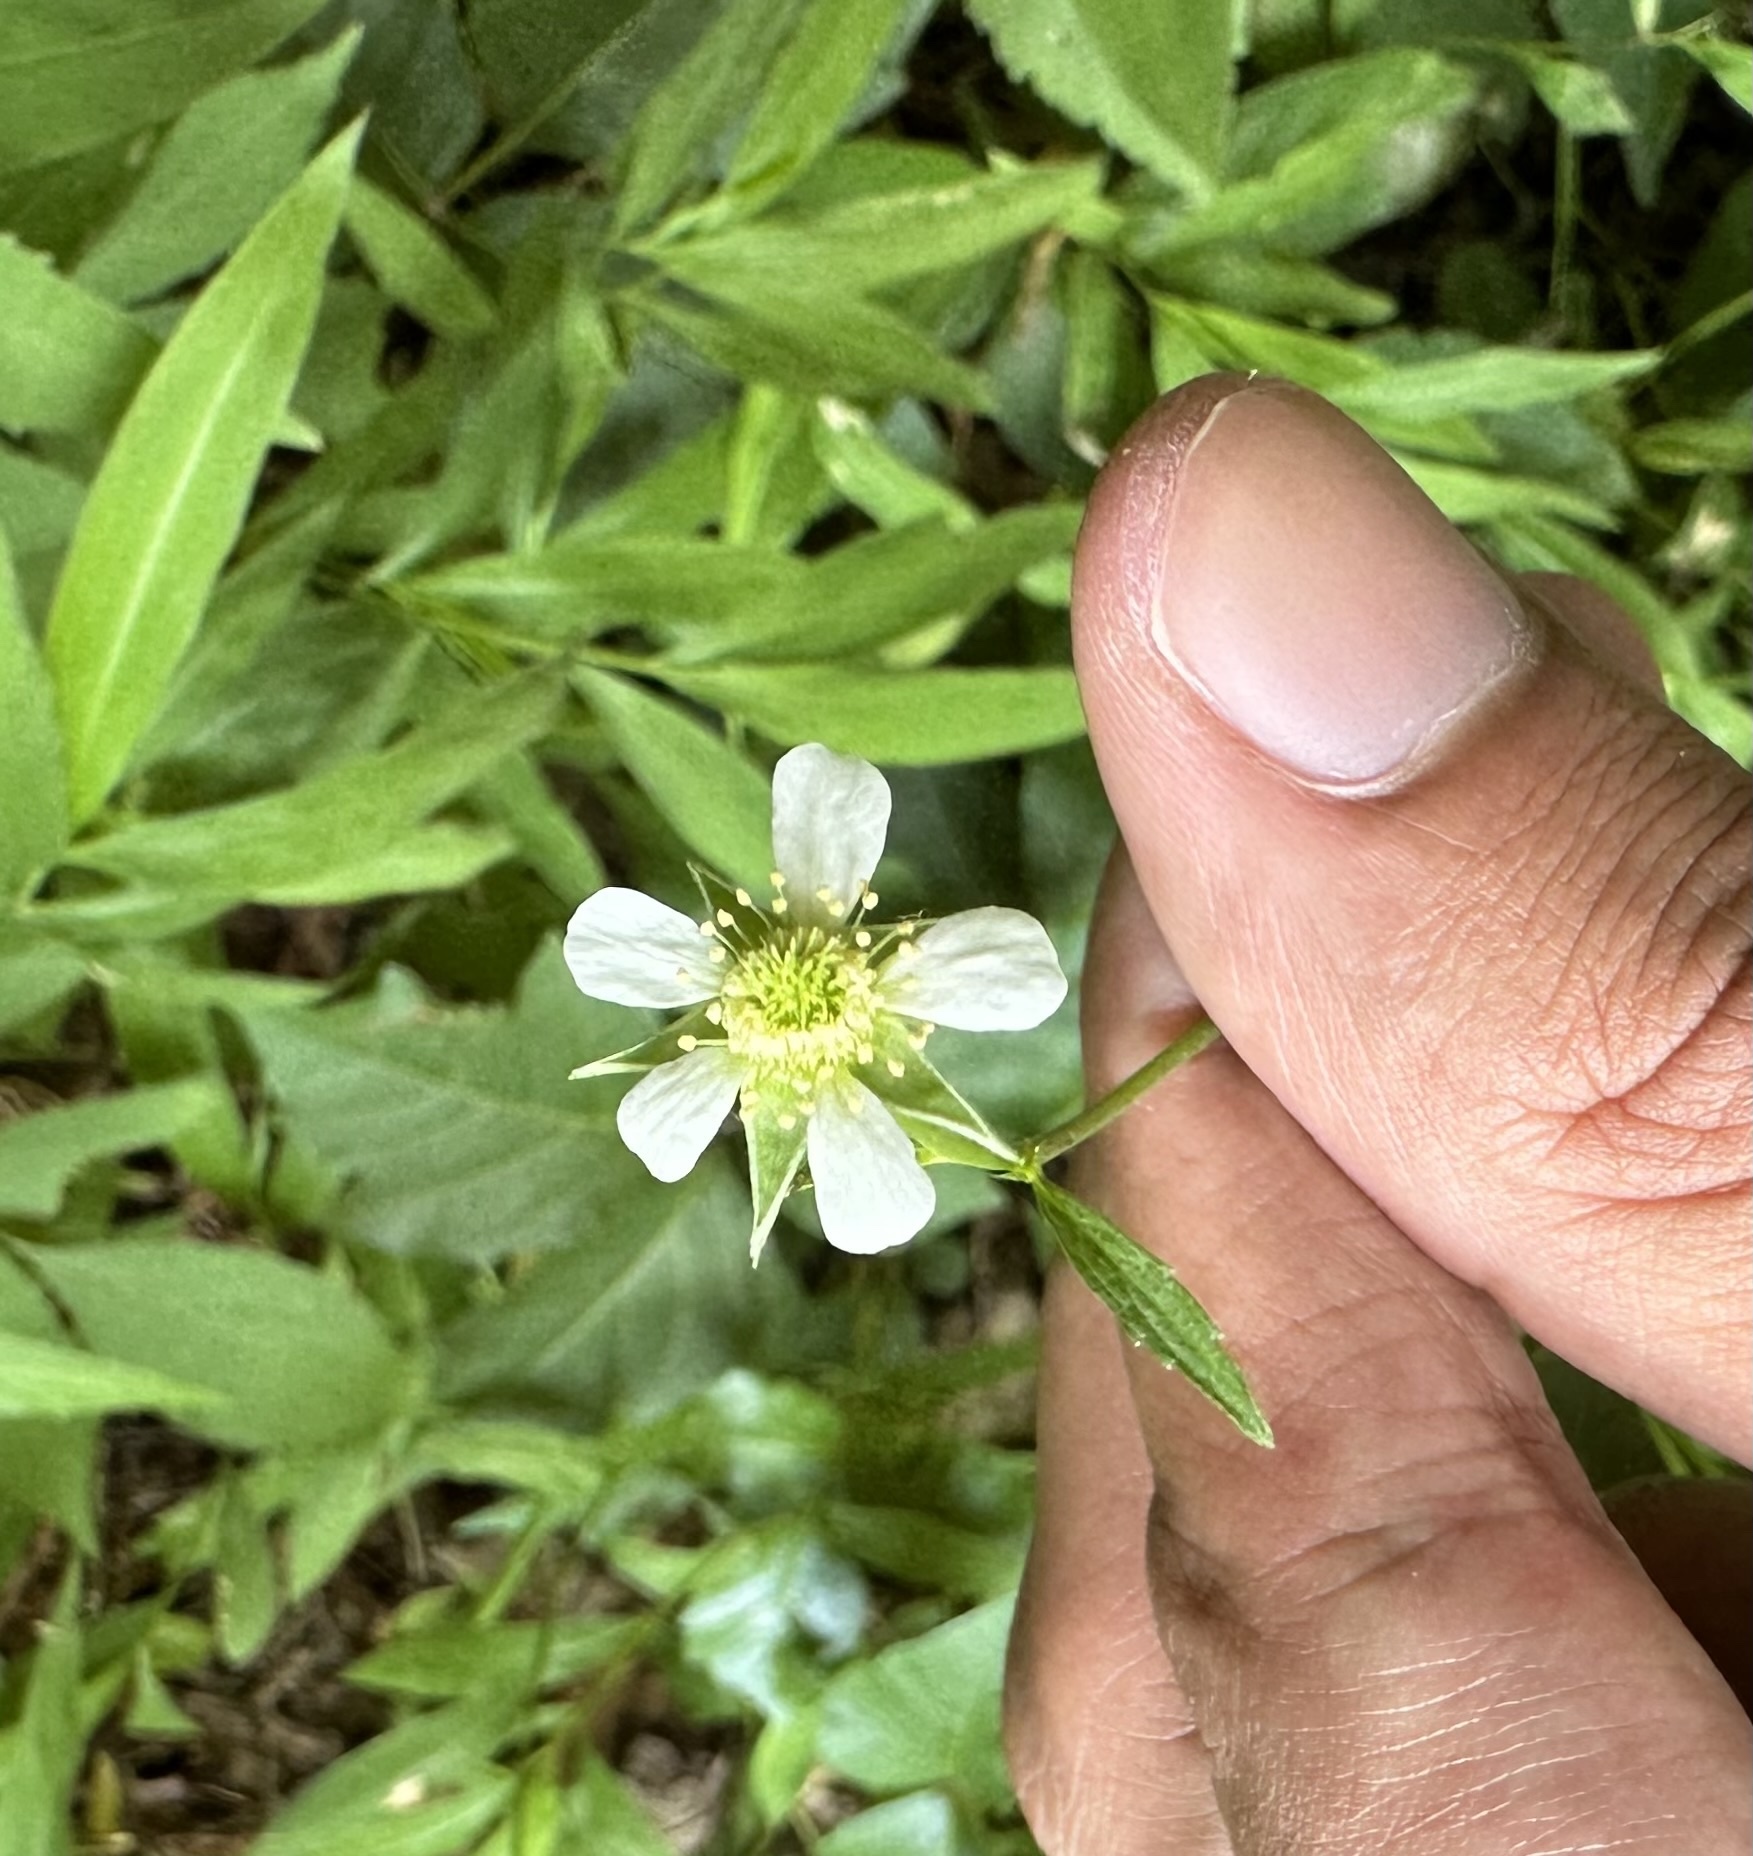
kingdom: Plantae
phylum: Tracheophyta
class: Magnoliopsida
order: Rosales
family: Rosaceae
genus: Geum
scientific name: Geum canadense
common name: White avens
